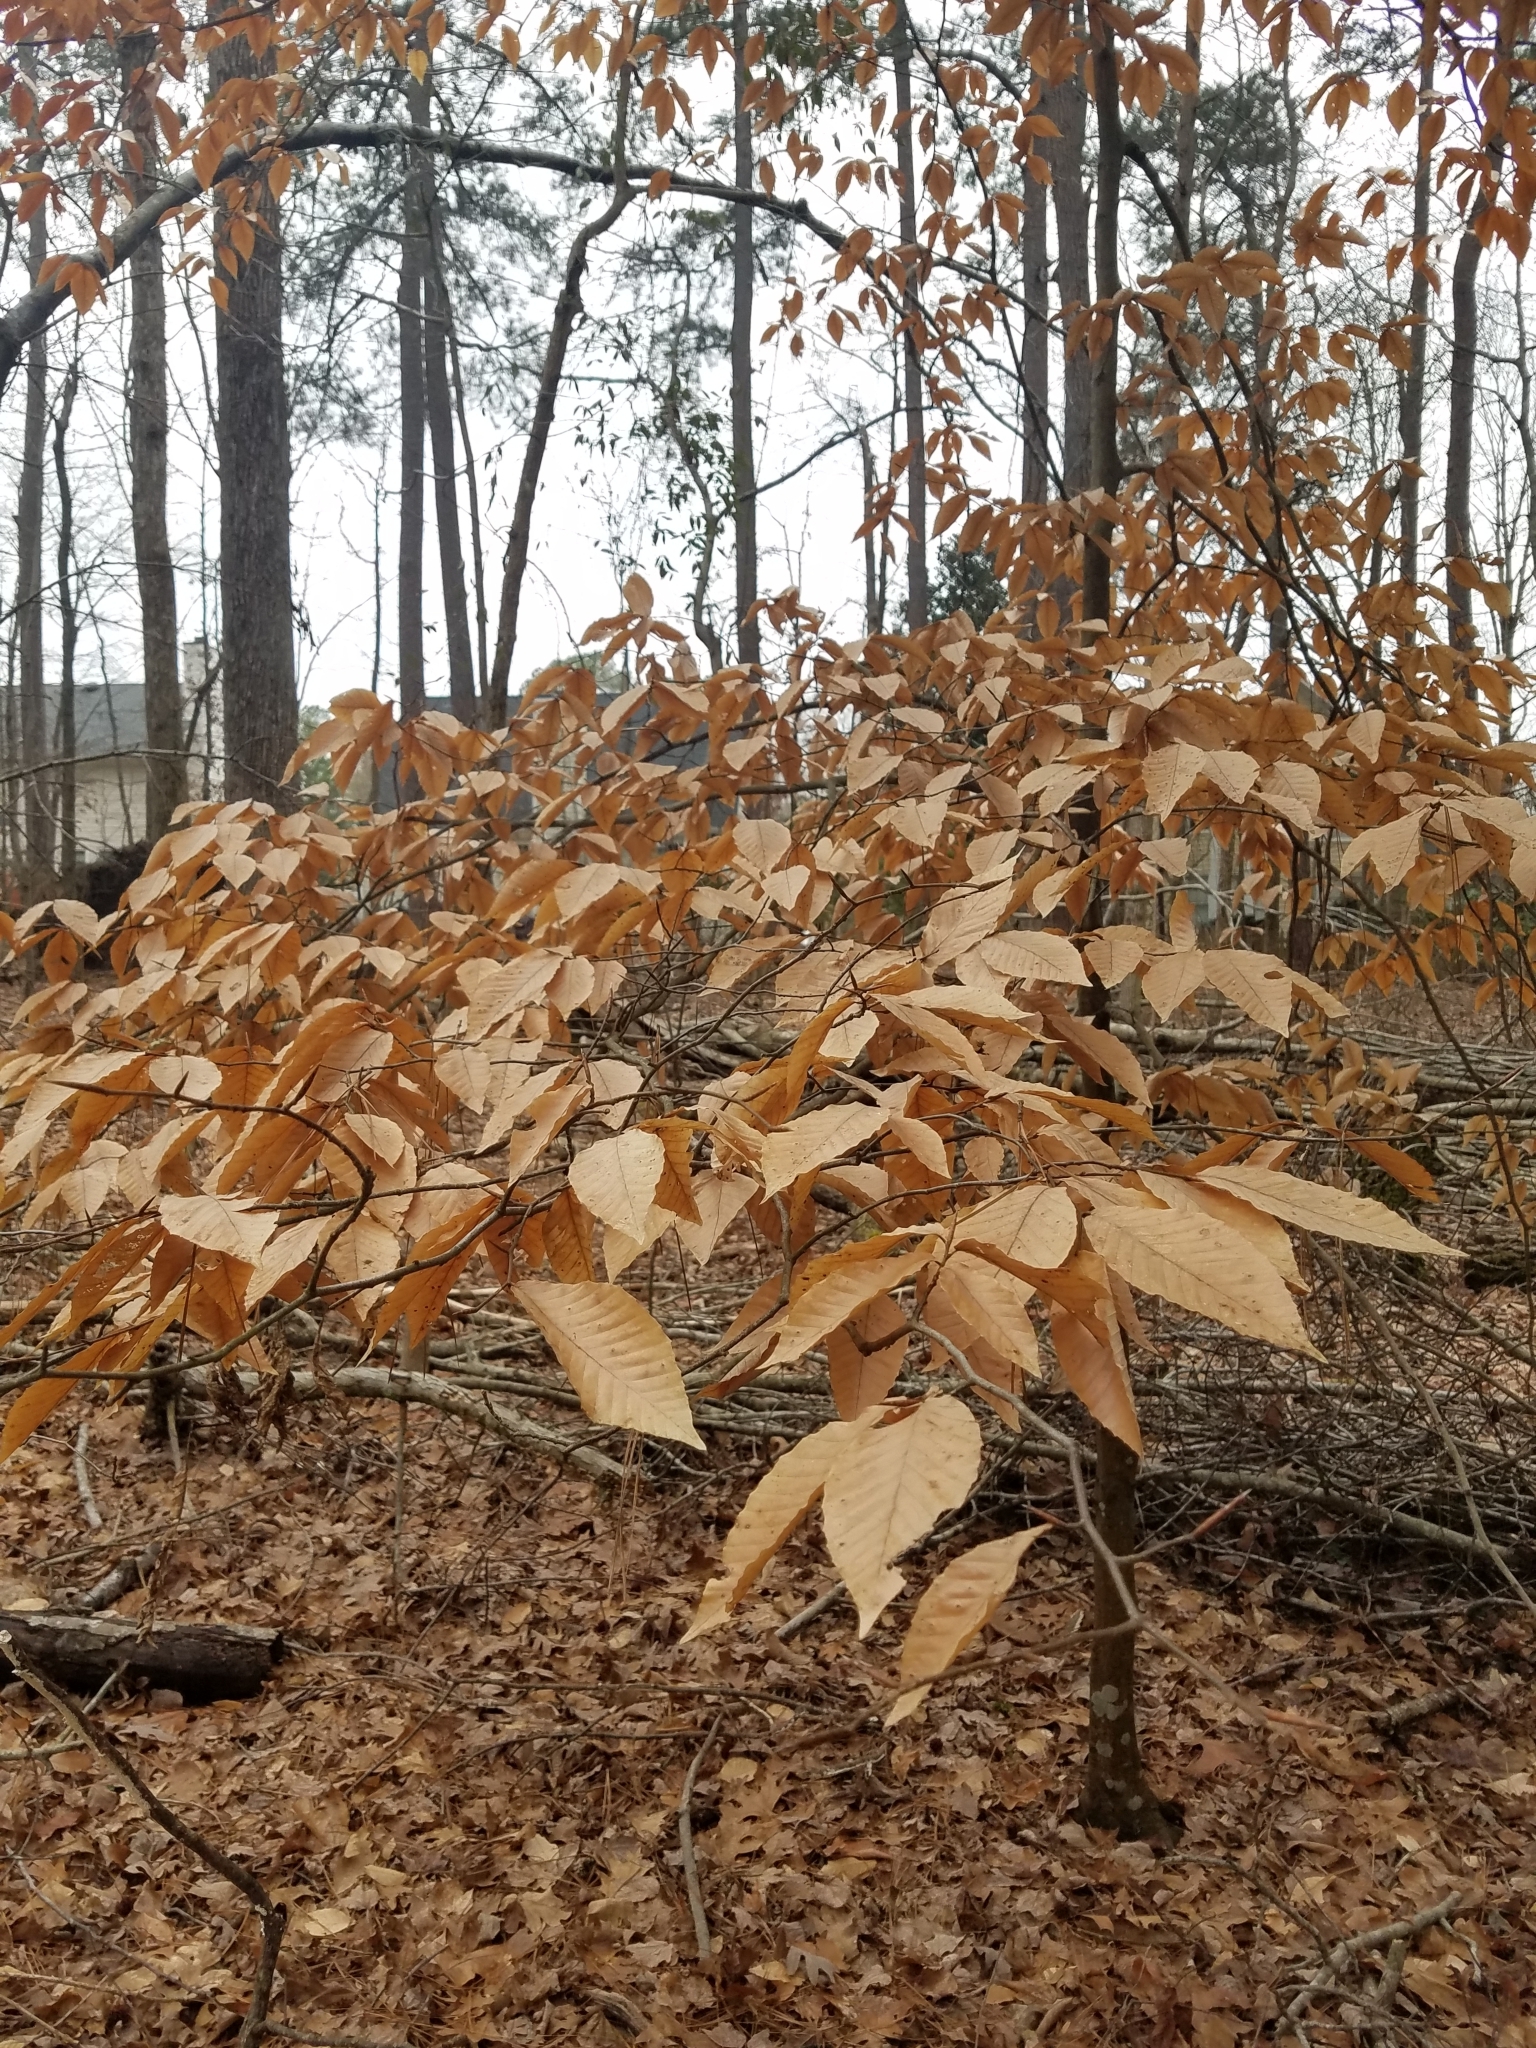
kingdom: Plantae
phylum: Tracheophyta
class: Magnoliopsida
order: Fagales
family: Fagaceae
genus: Fagus
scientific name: Fagus grandifolia
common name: American beech
